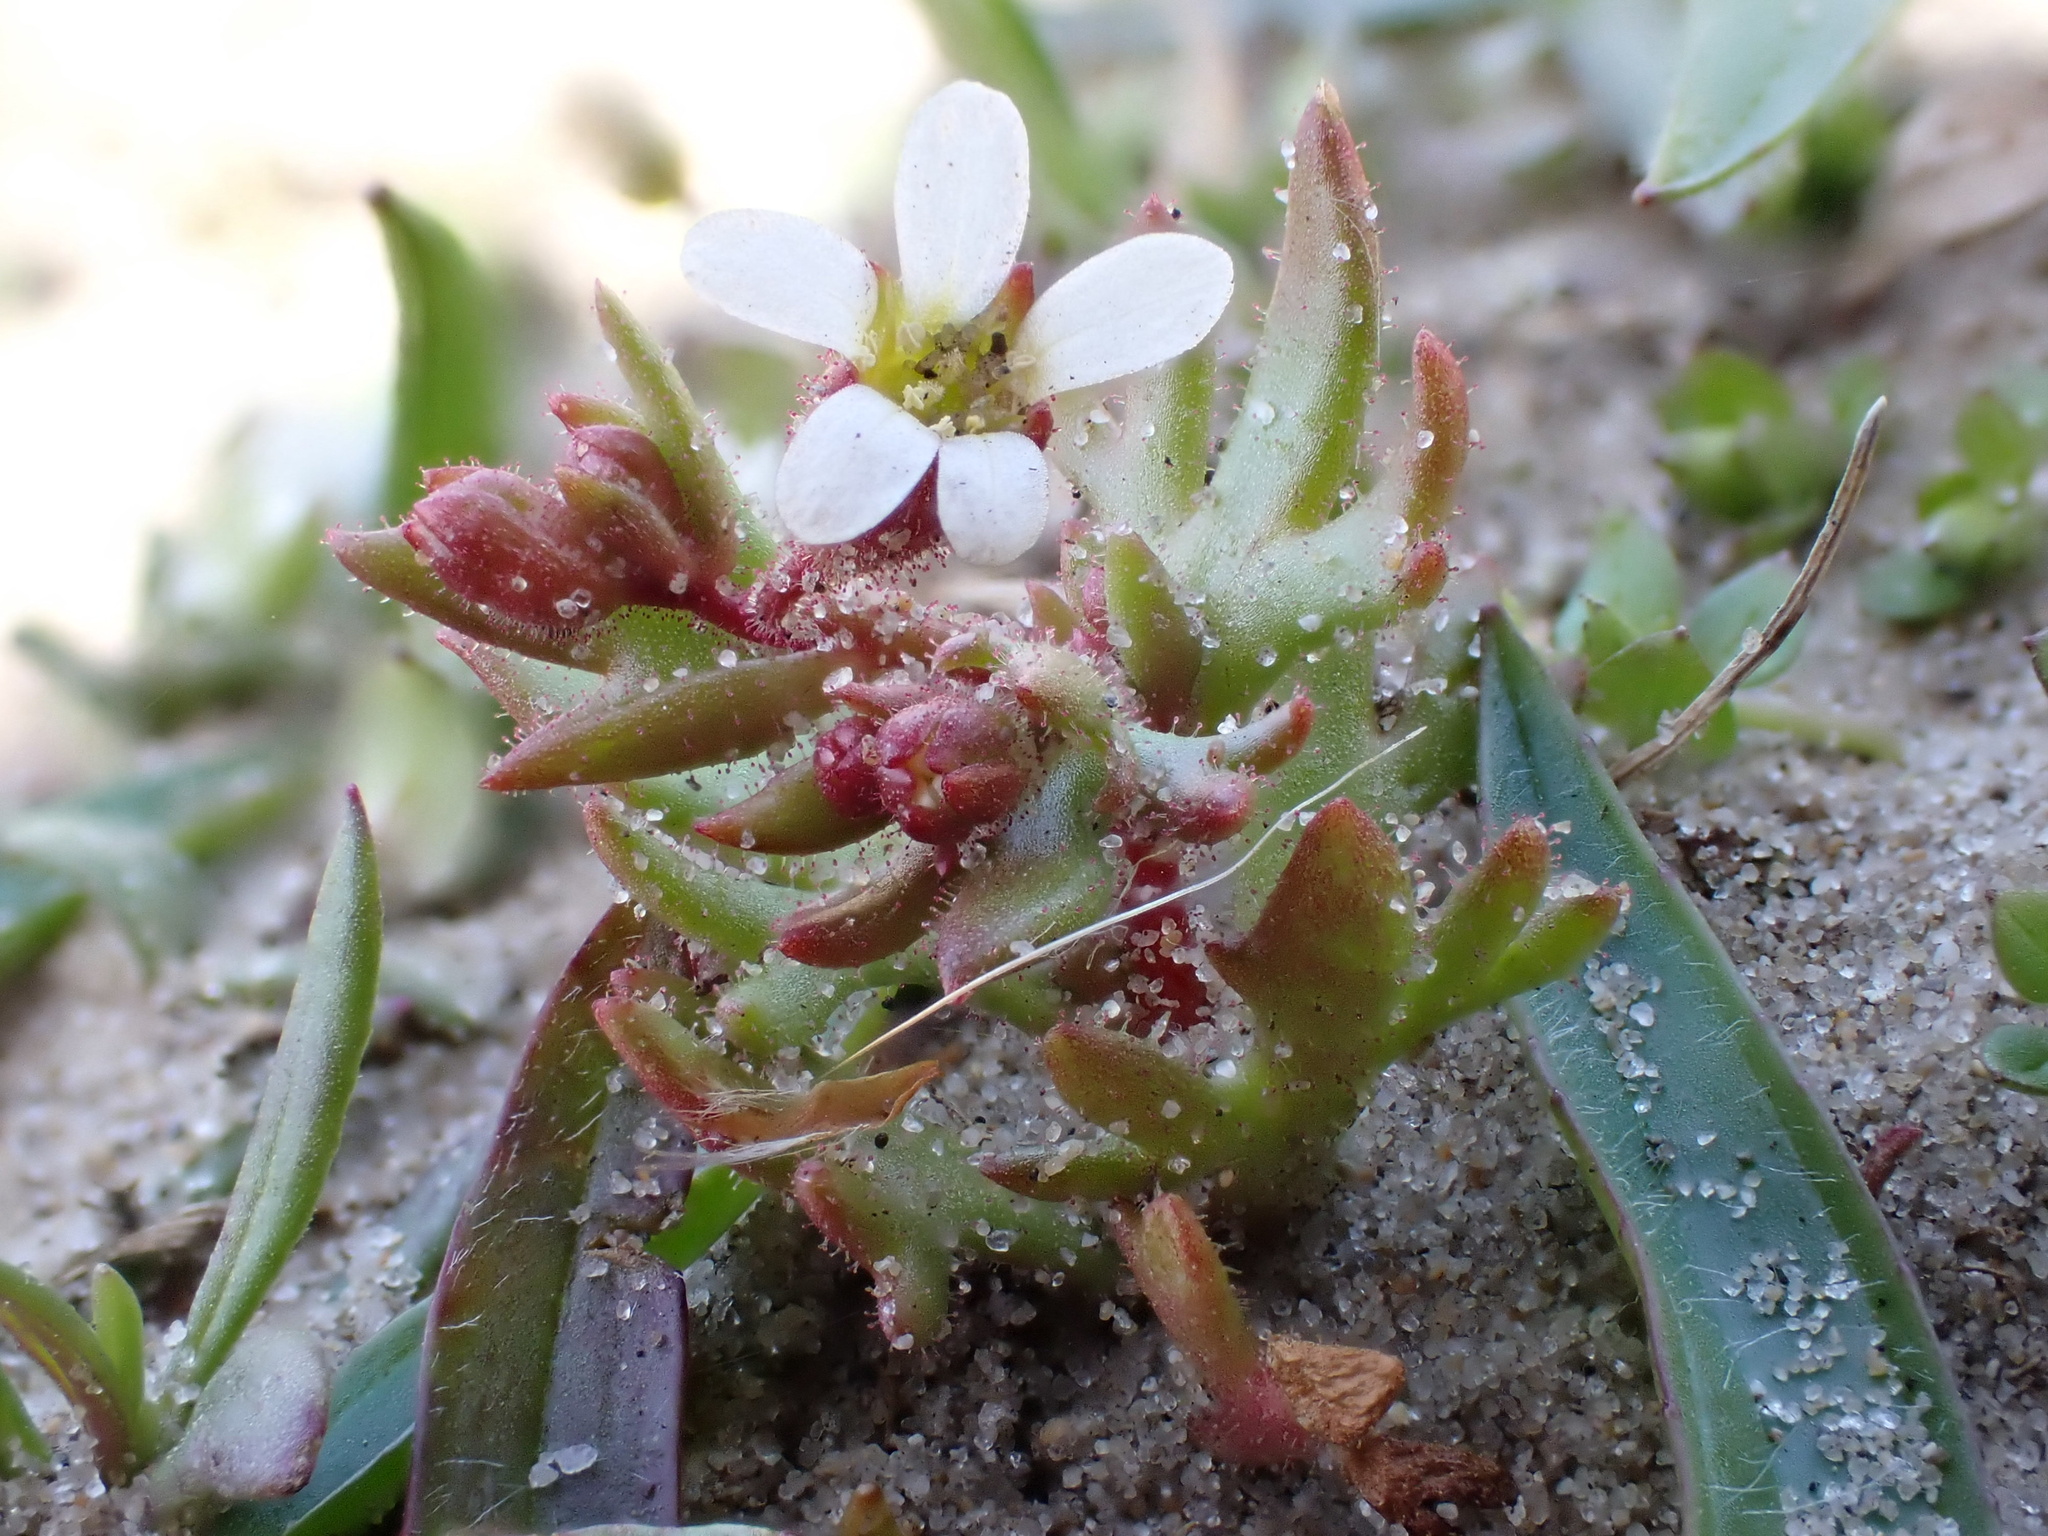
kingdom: Plantae
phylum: Tracheophyta
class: Magnoliopsida
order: Saxifragales
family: Saxifragaceae
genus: Saxifraga
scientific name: Saxifraga tridactylites
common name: Rue-leaved saxifrage
